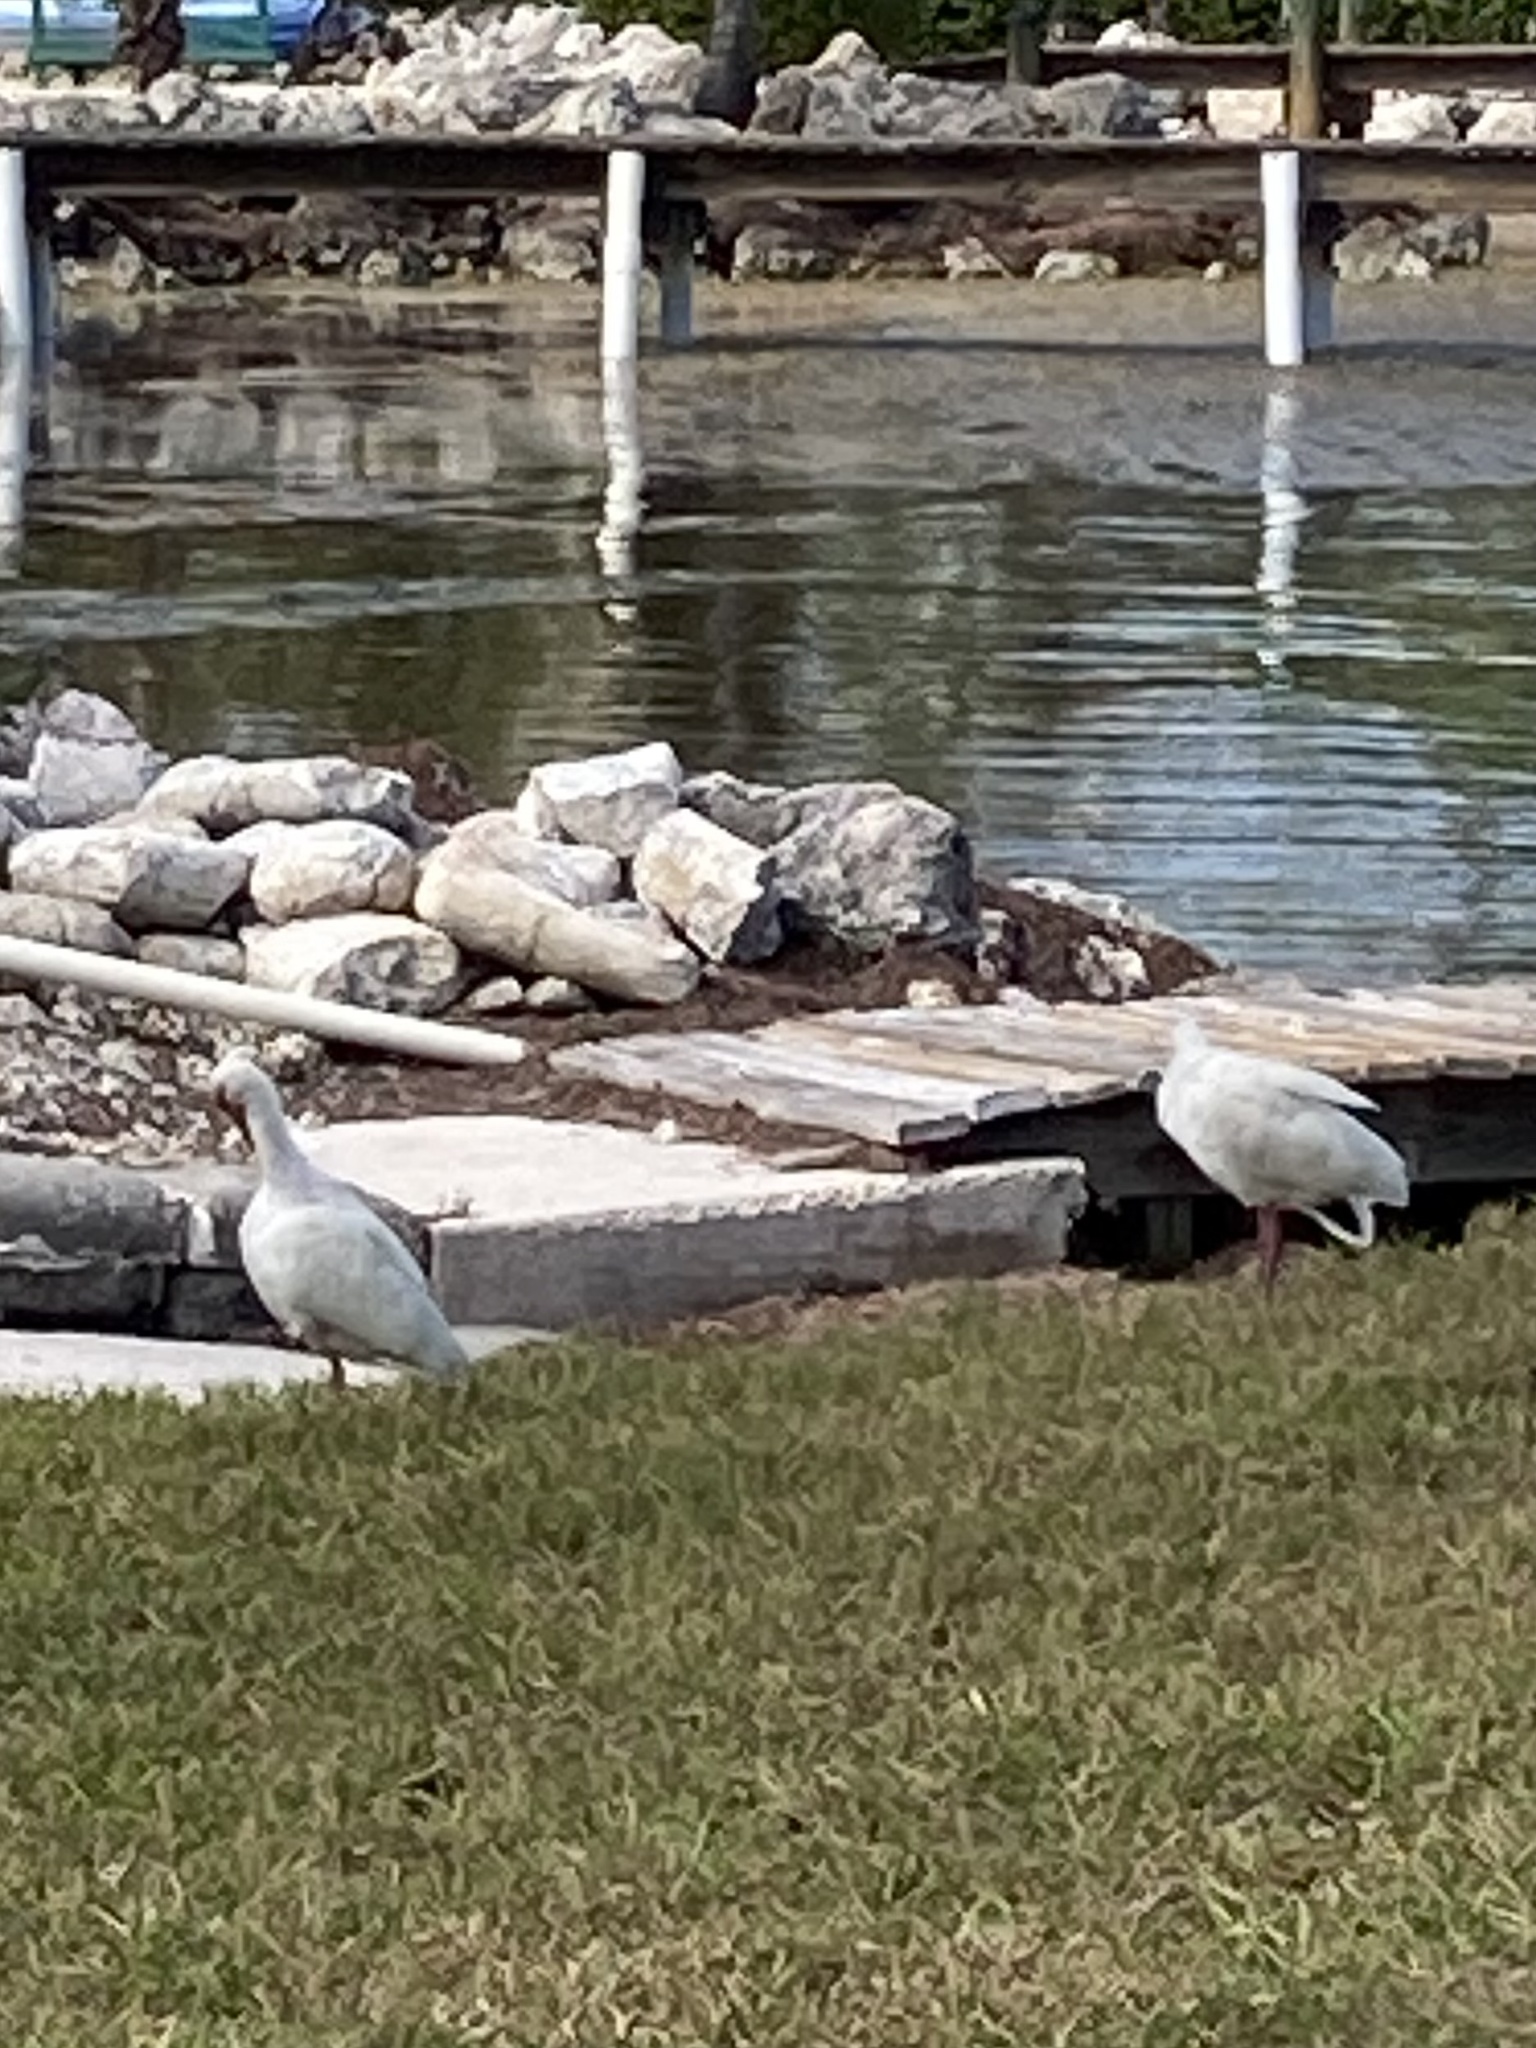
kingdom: Animalia
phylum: Chordata
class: Aves
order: Pelecaniformes
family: Threskiornithidae
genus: Eudocimus
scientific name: Eudocimus albus
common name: White ibis
